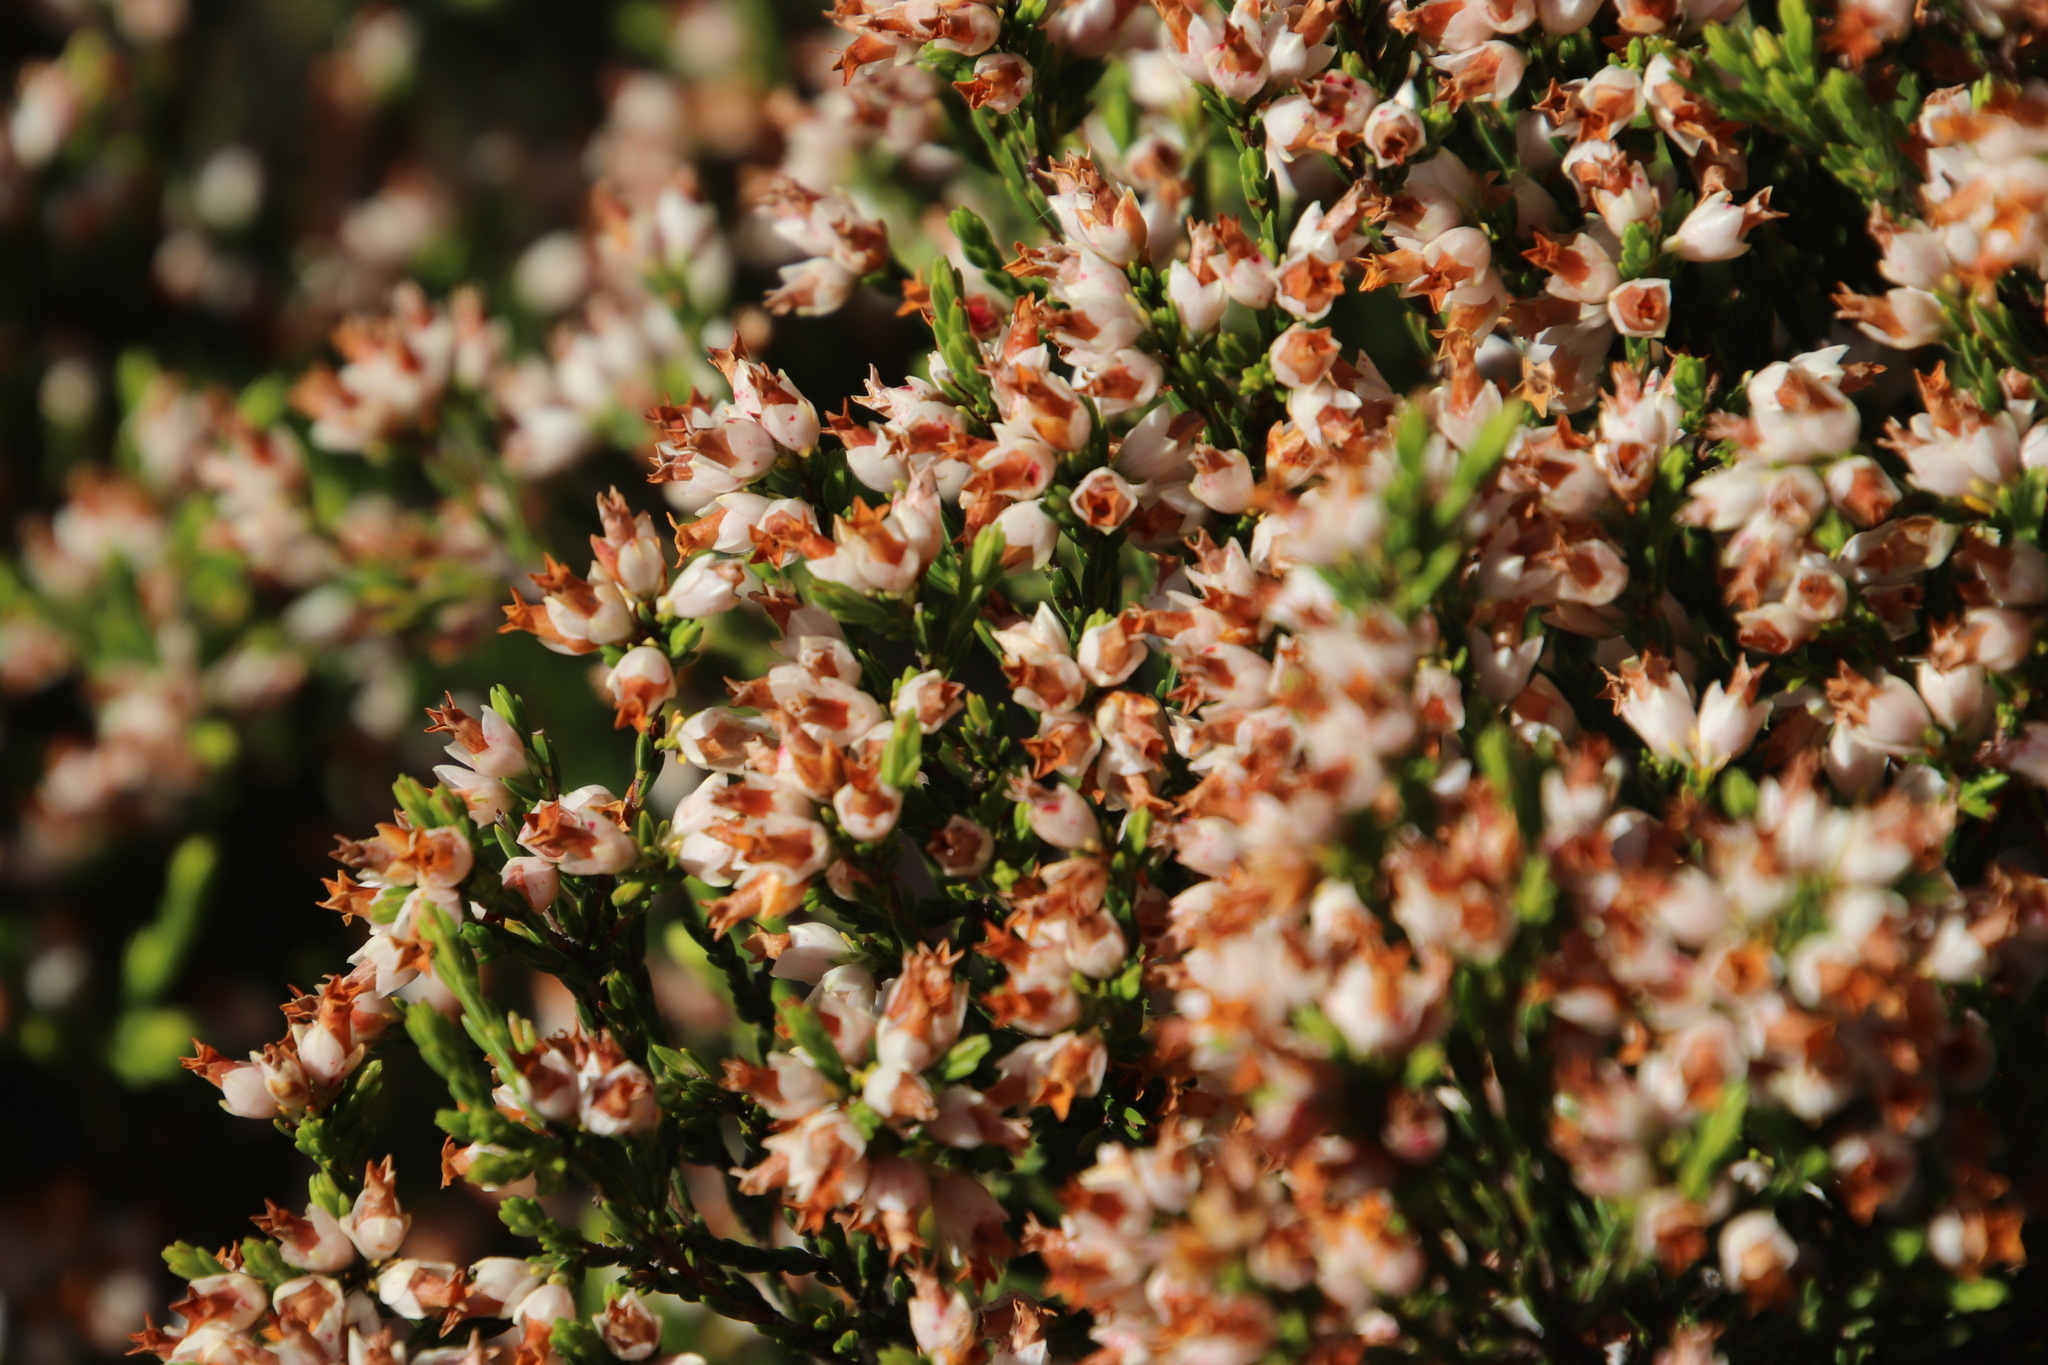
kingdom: Plantae
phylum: Tracheophyta
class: Magnoliopsida
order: Ericales
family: Ericaceae
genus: Erica
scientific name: Erica lutea
